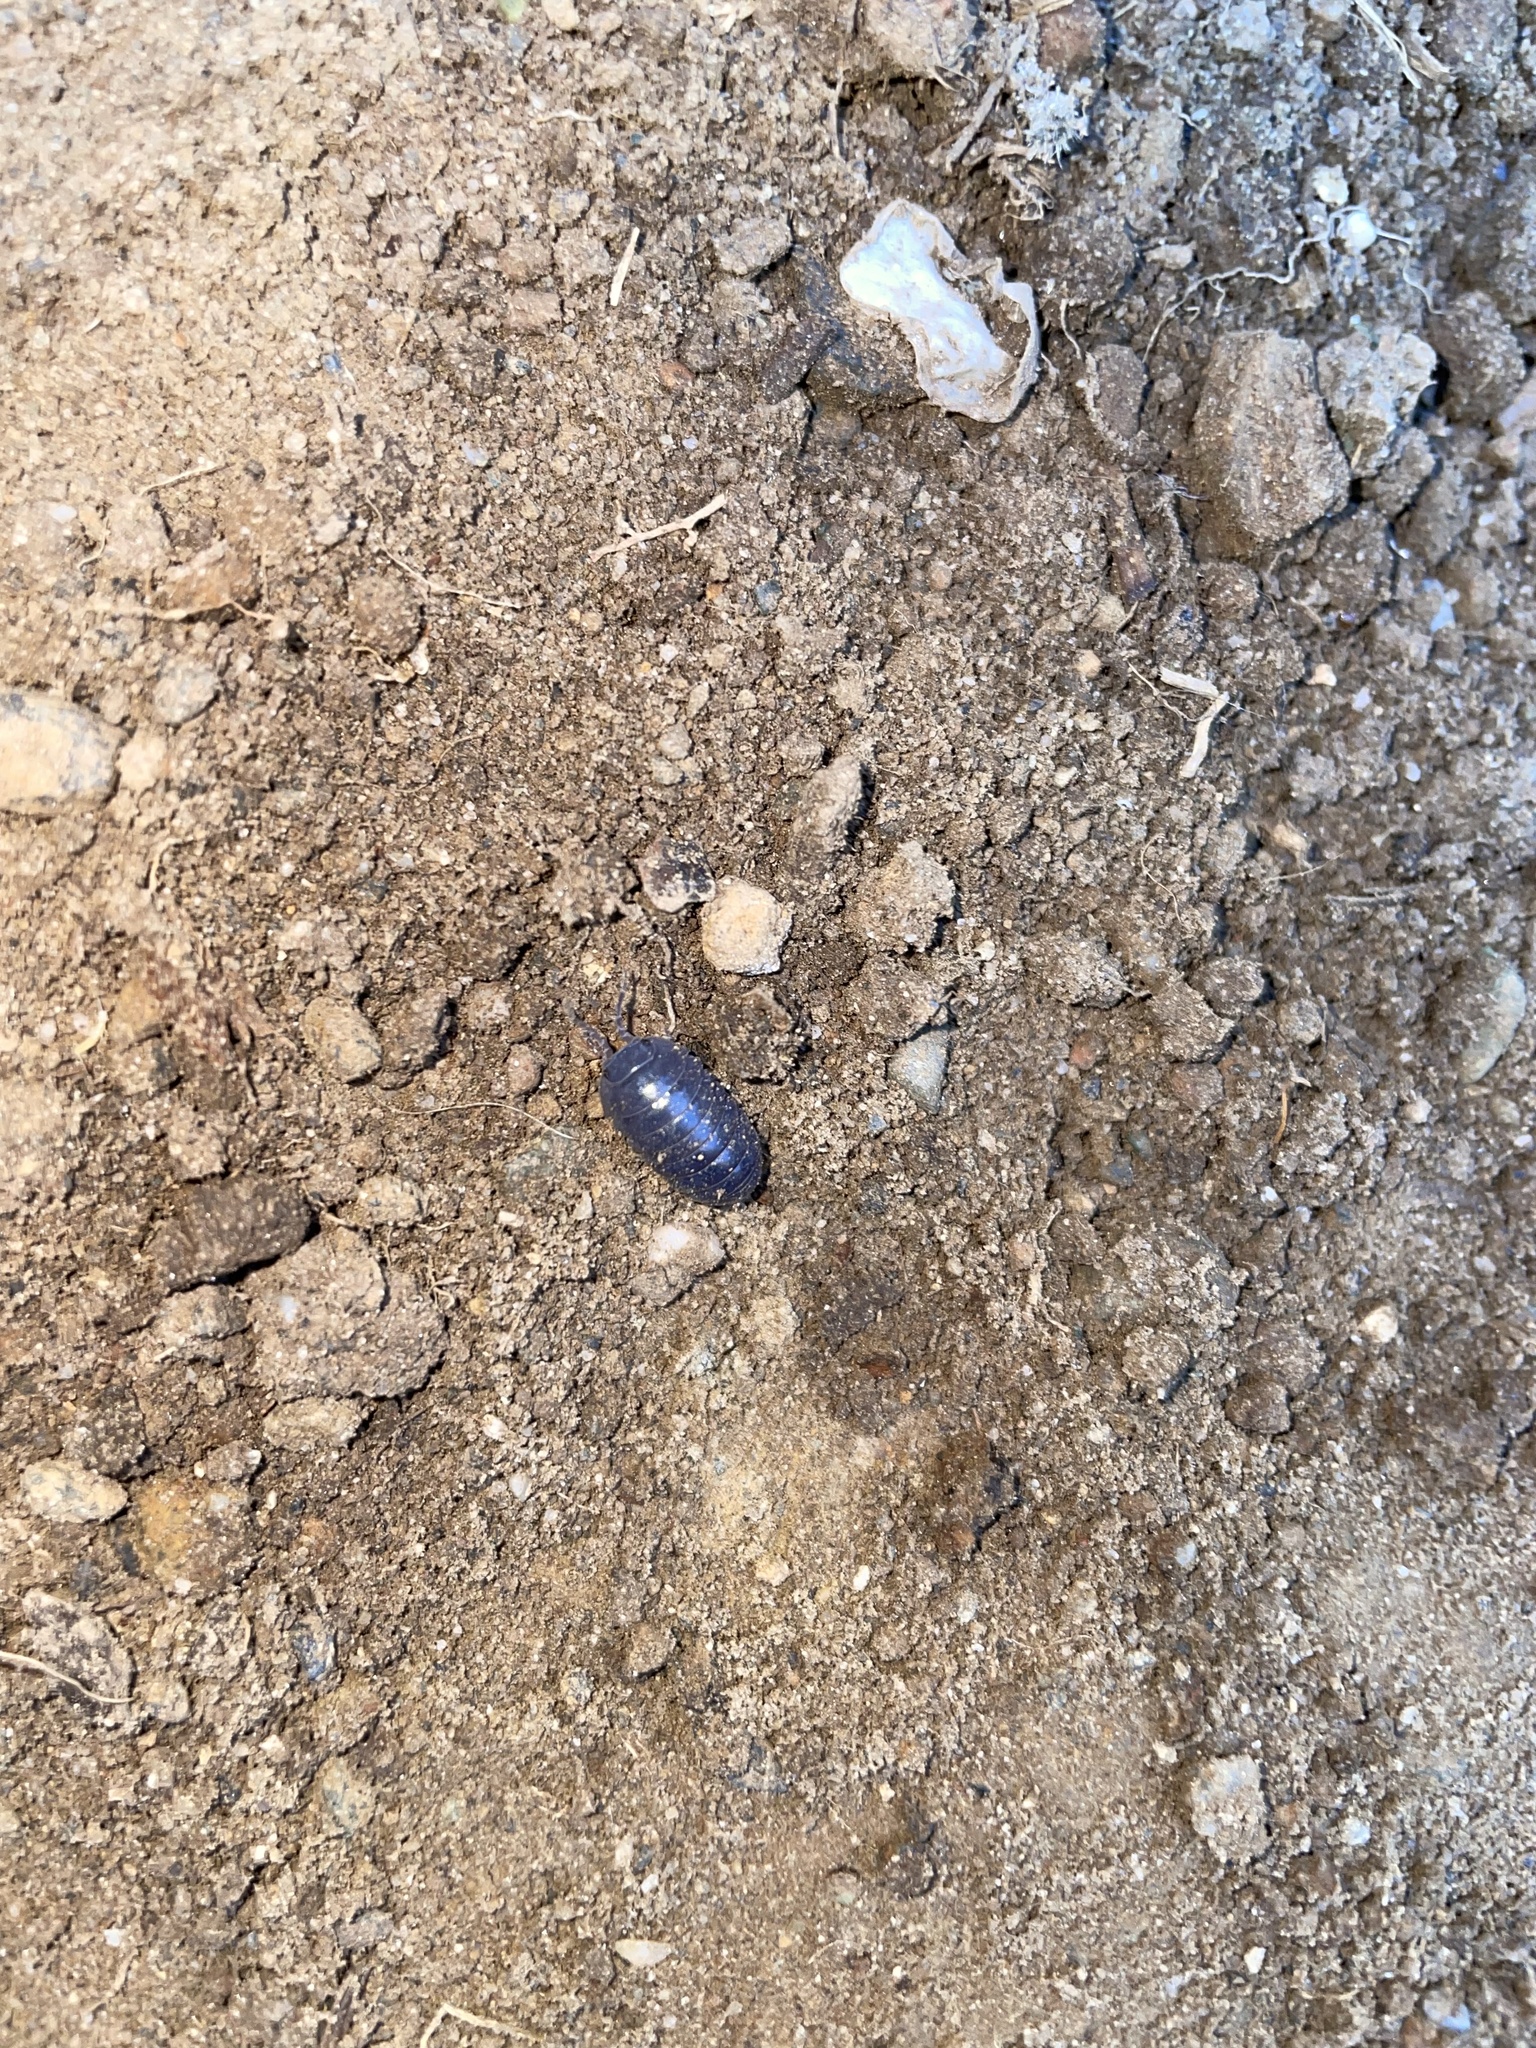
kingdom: Viruses
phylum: Nucleocytoviricota
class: Megaviricetes
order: Pimascovirales
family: Iridoviridae
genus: Iridovirus
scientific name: Iridovirus Invertebrate iridescent virus 31
